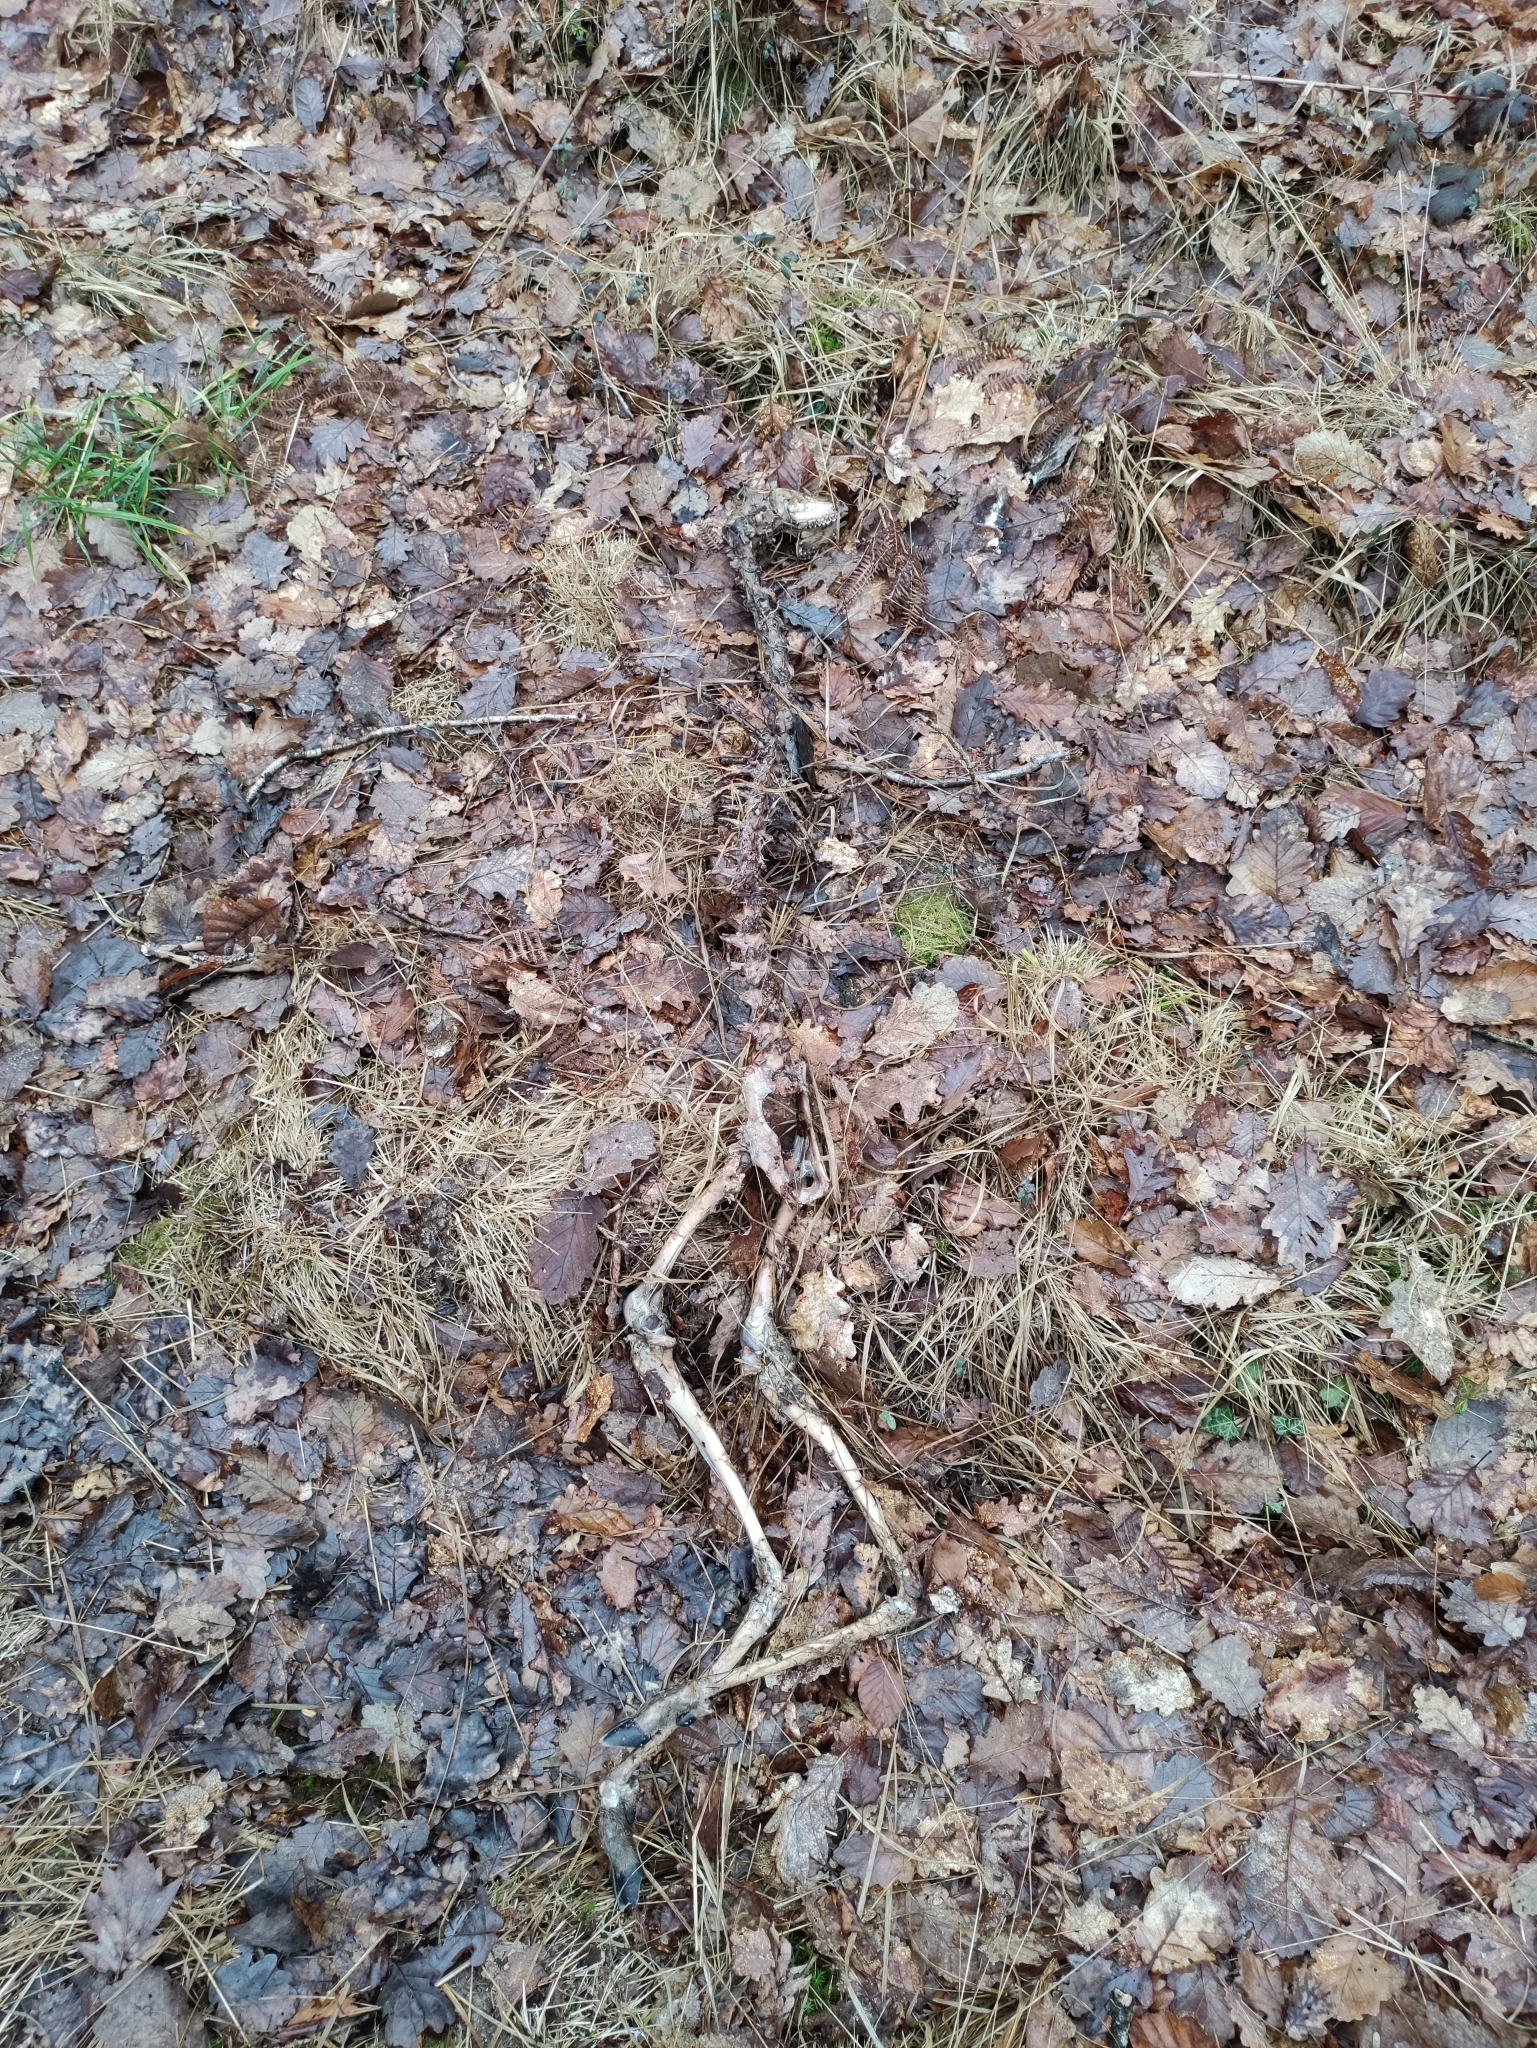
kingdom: Animalia
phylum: Chordata
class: Mammalia
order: Artiodactyla
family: Cervidae
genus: Capreolus
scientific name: Capreolus capreolus
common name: Western roe deer
